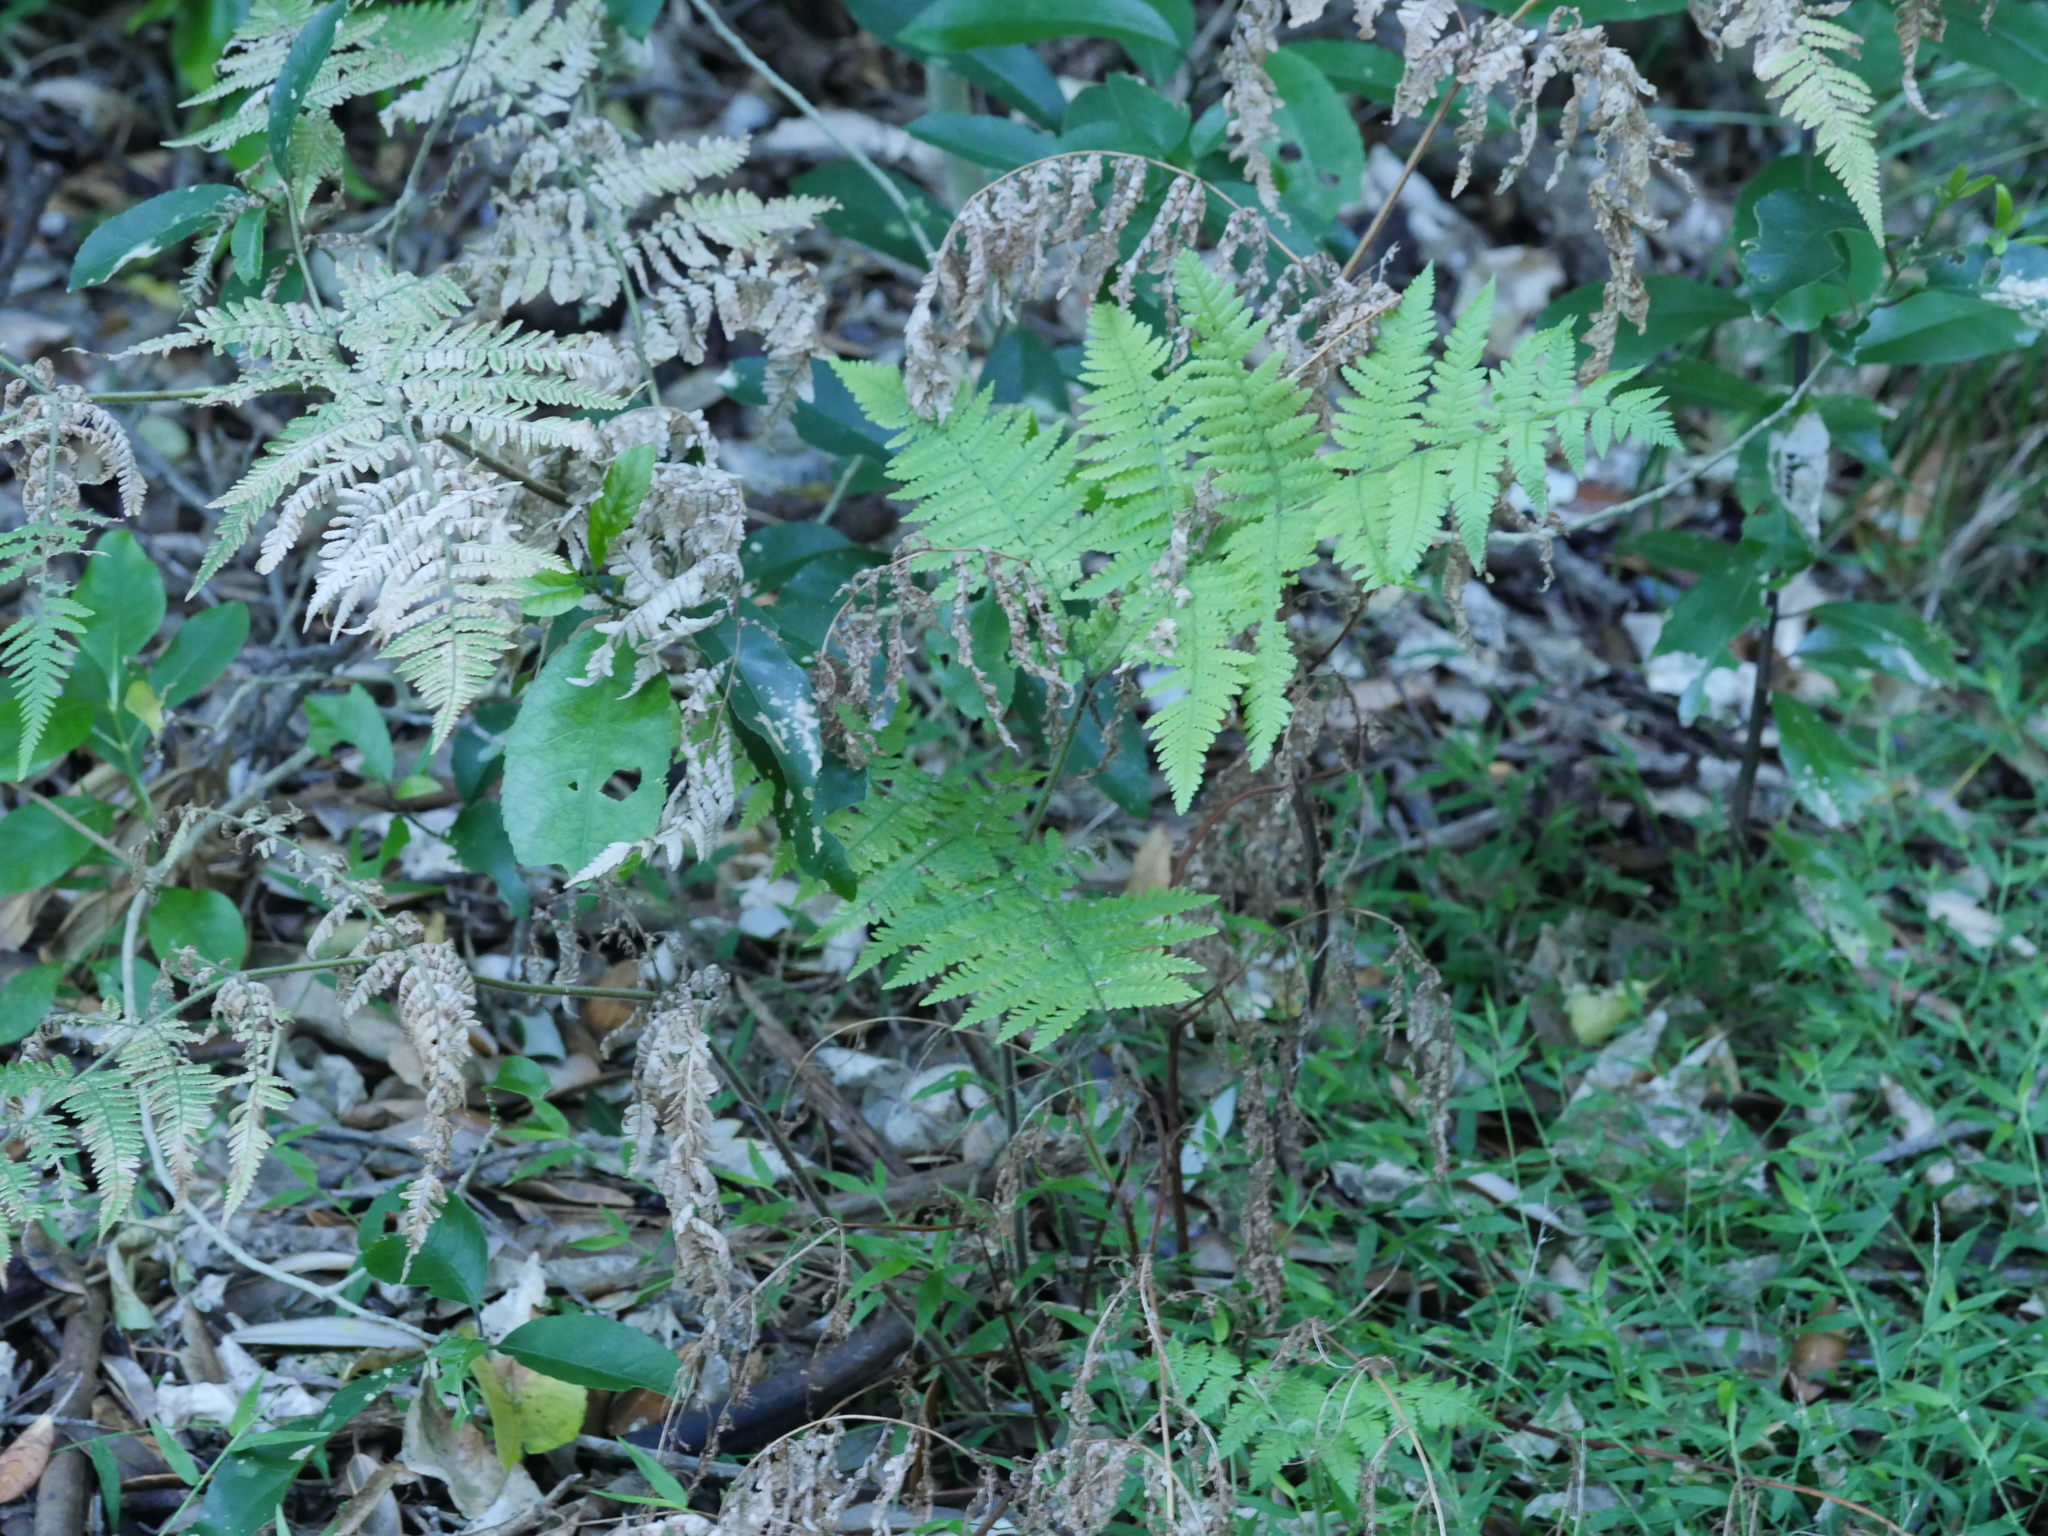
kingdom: Plantae
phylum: Tracheophyta
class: Polypodiopsida
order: Polypodiales
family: Dennstaedtiaceae
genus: Hypolepis
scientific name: Hypolepis ambigua
